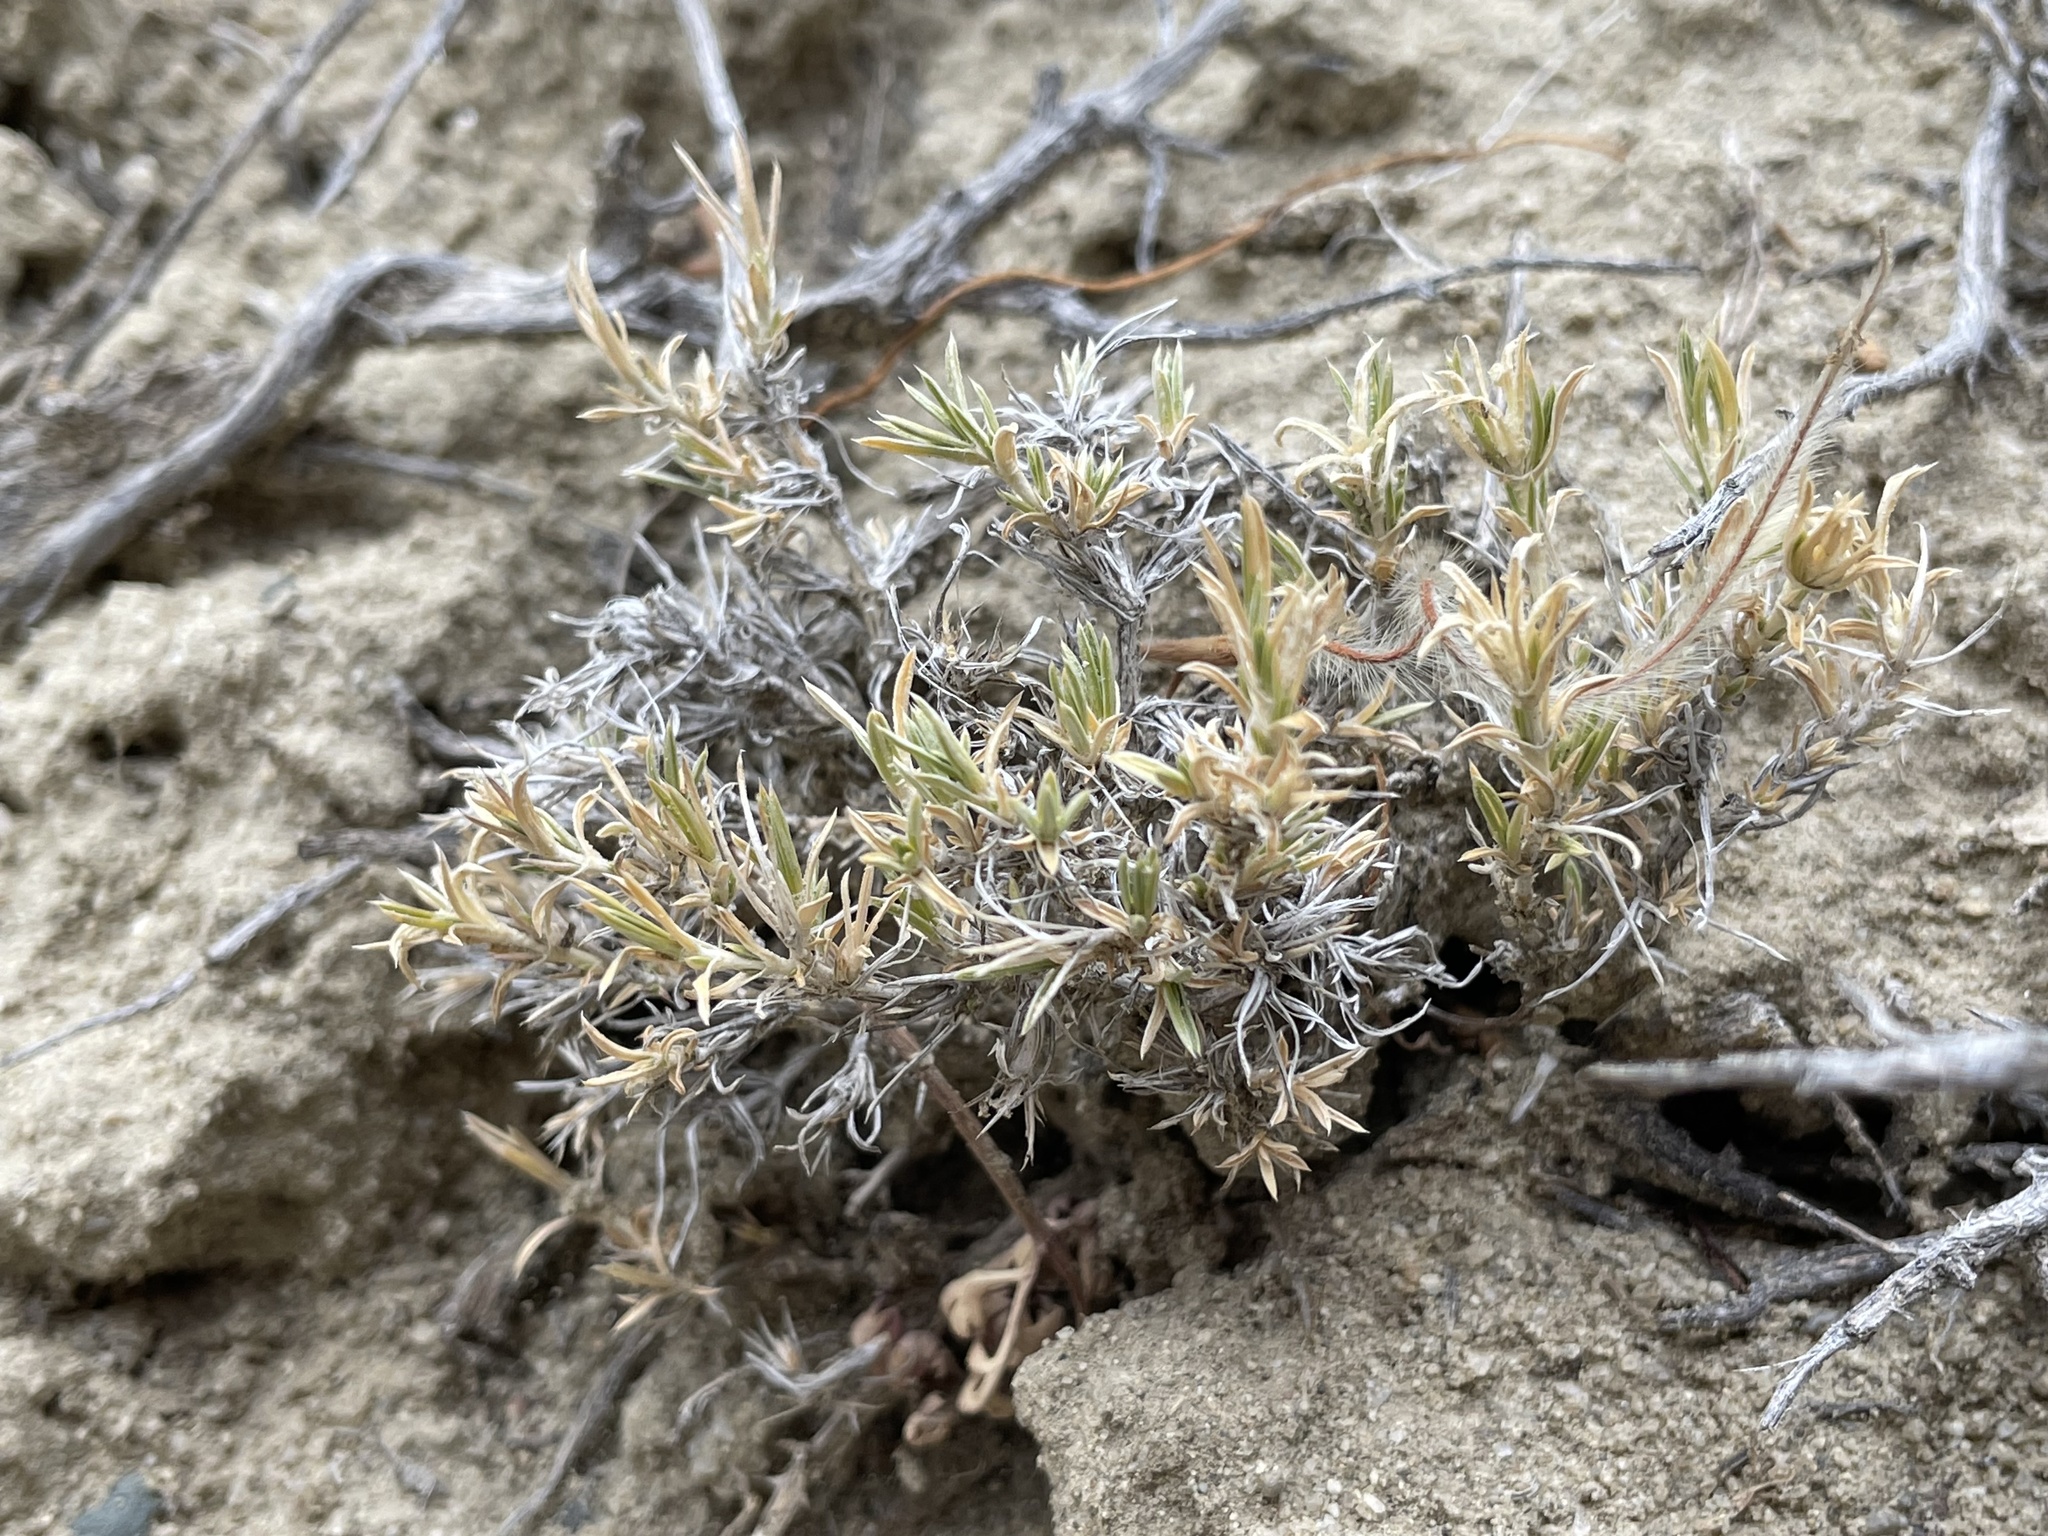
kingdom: Plantae
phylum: Tracheophyta
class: Magnoliopsida
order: Ericales
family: Polemoniaceae
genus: Phlox
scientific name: Phlox austromontana
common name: Desert phlox
